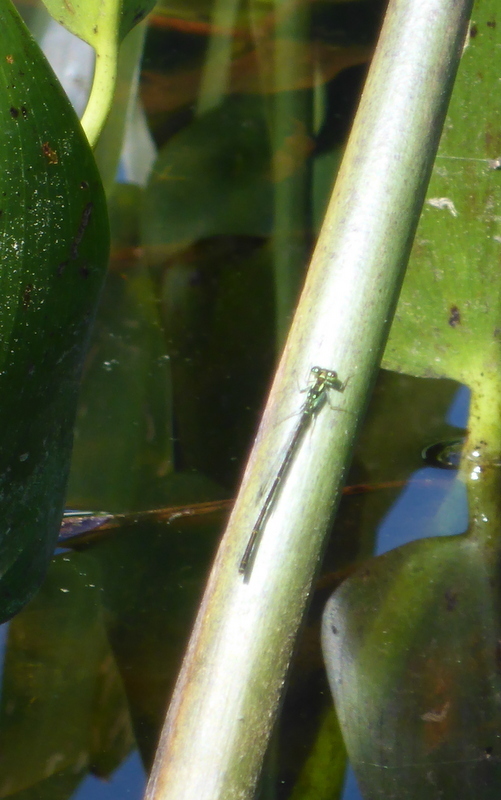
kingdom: Animalia
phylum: Arthropoda
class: Insecta
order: Odonata
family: Coenagrionidae
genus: Ischnura
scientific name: Ischnura posita
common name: Fragile forktail
